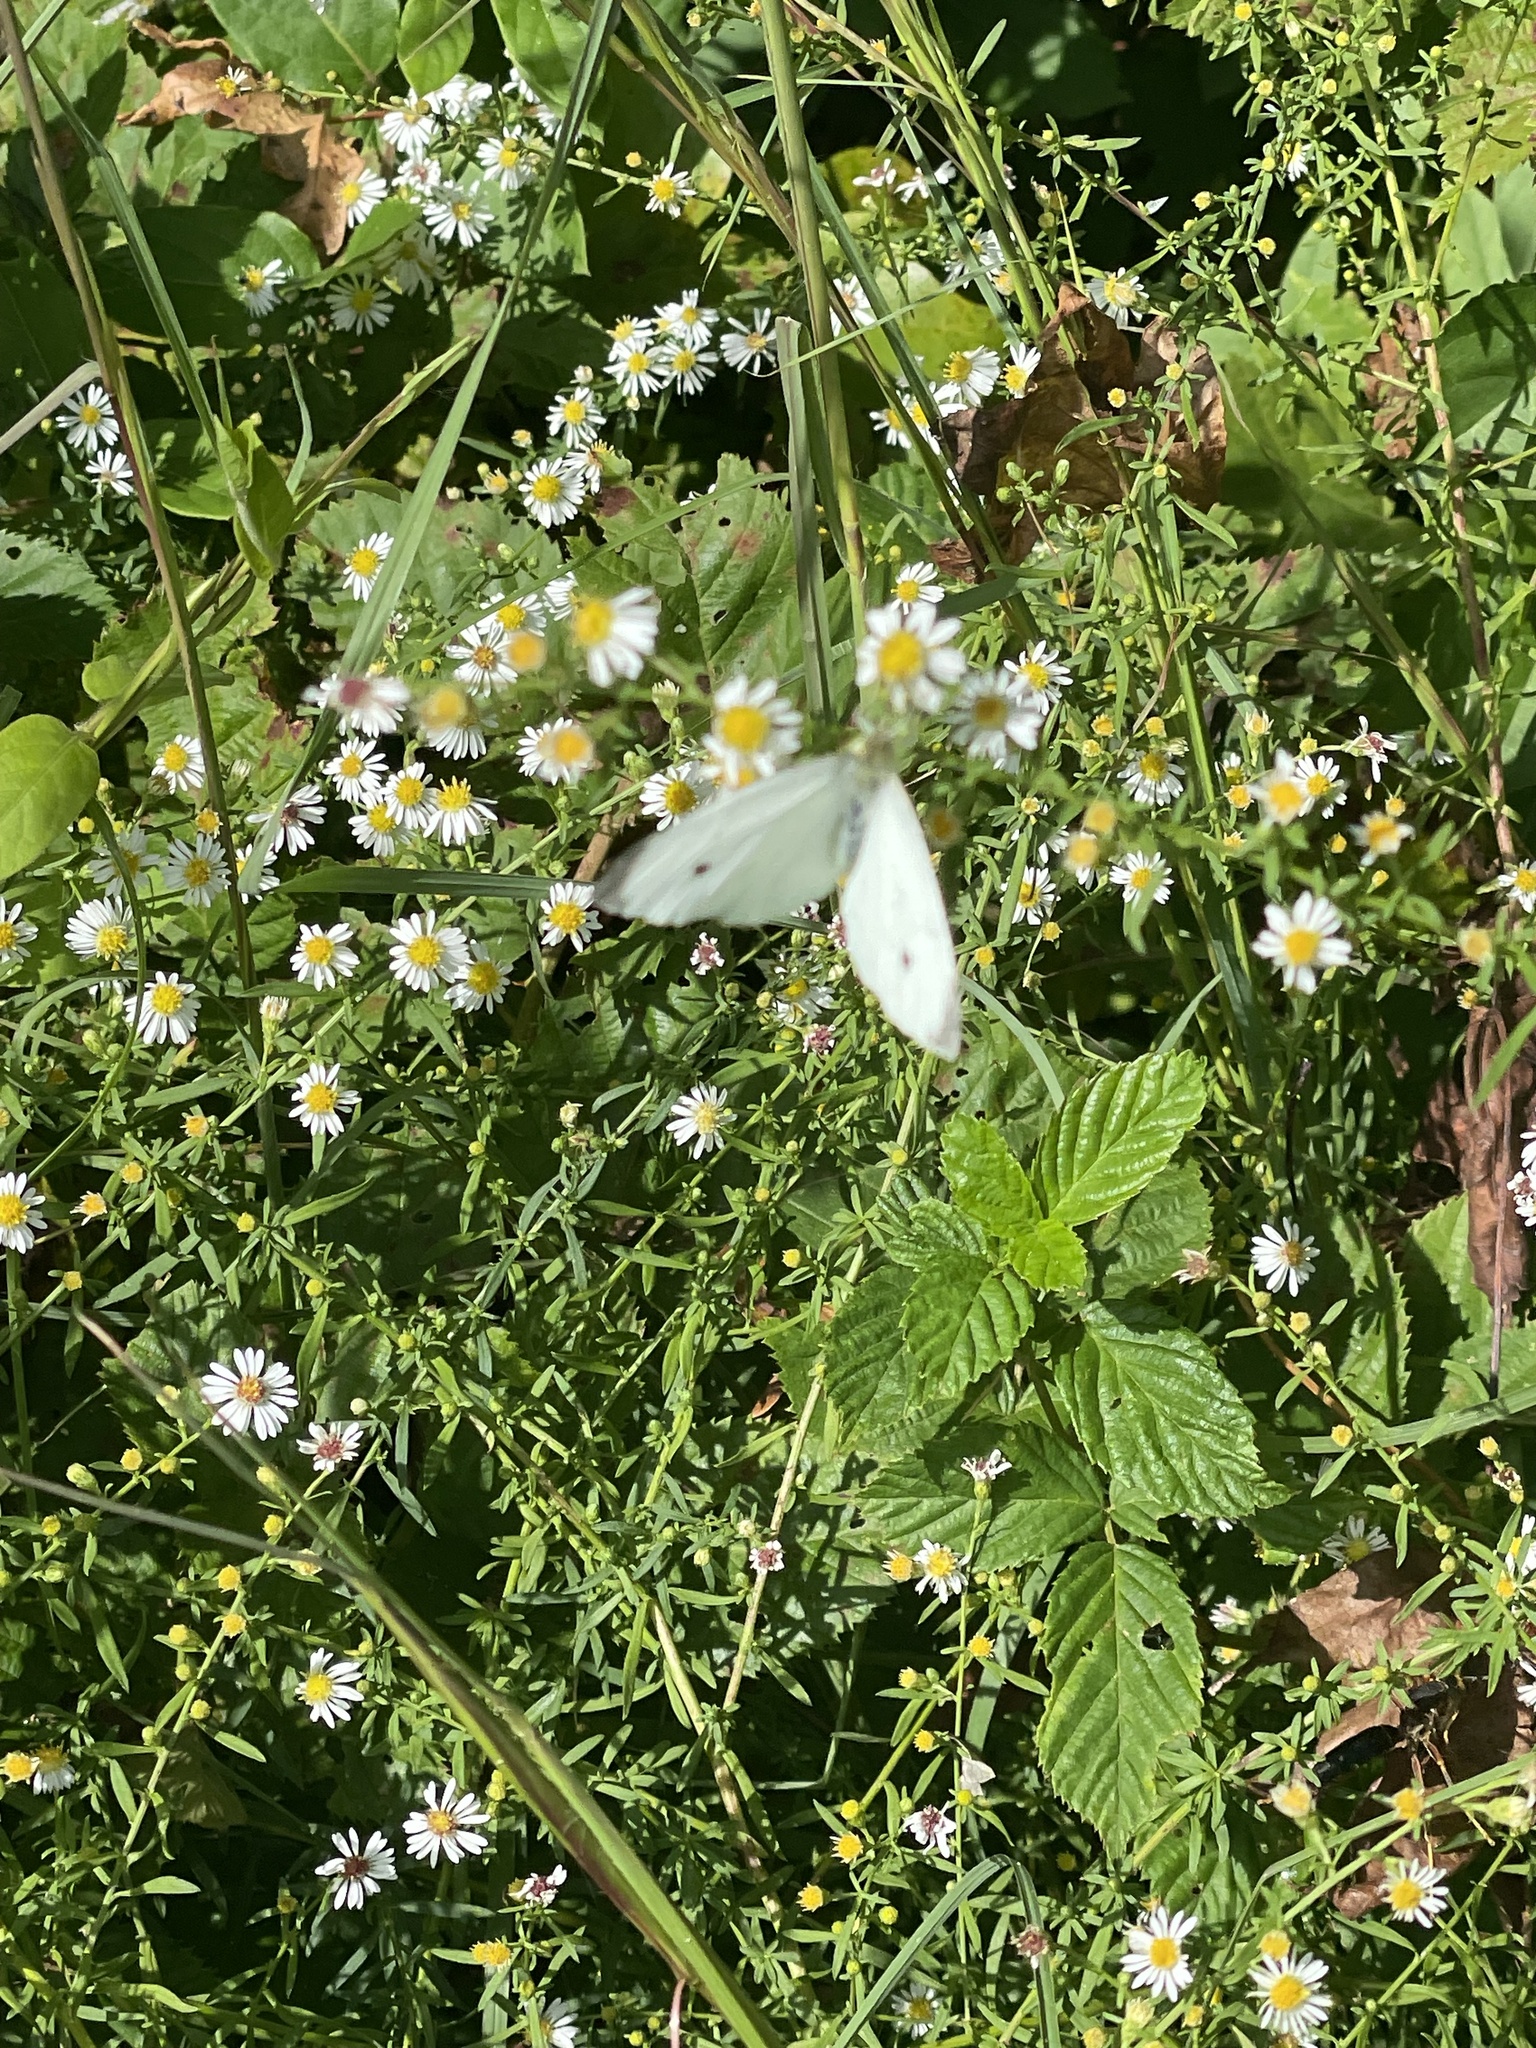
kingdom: Animalia
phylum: Arthropoda
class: Insecta
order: Lepidoptera
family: Pieridae
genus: Pieris
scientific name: Pieris rapae
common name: Small white
